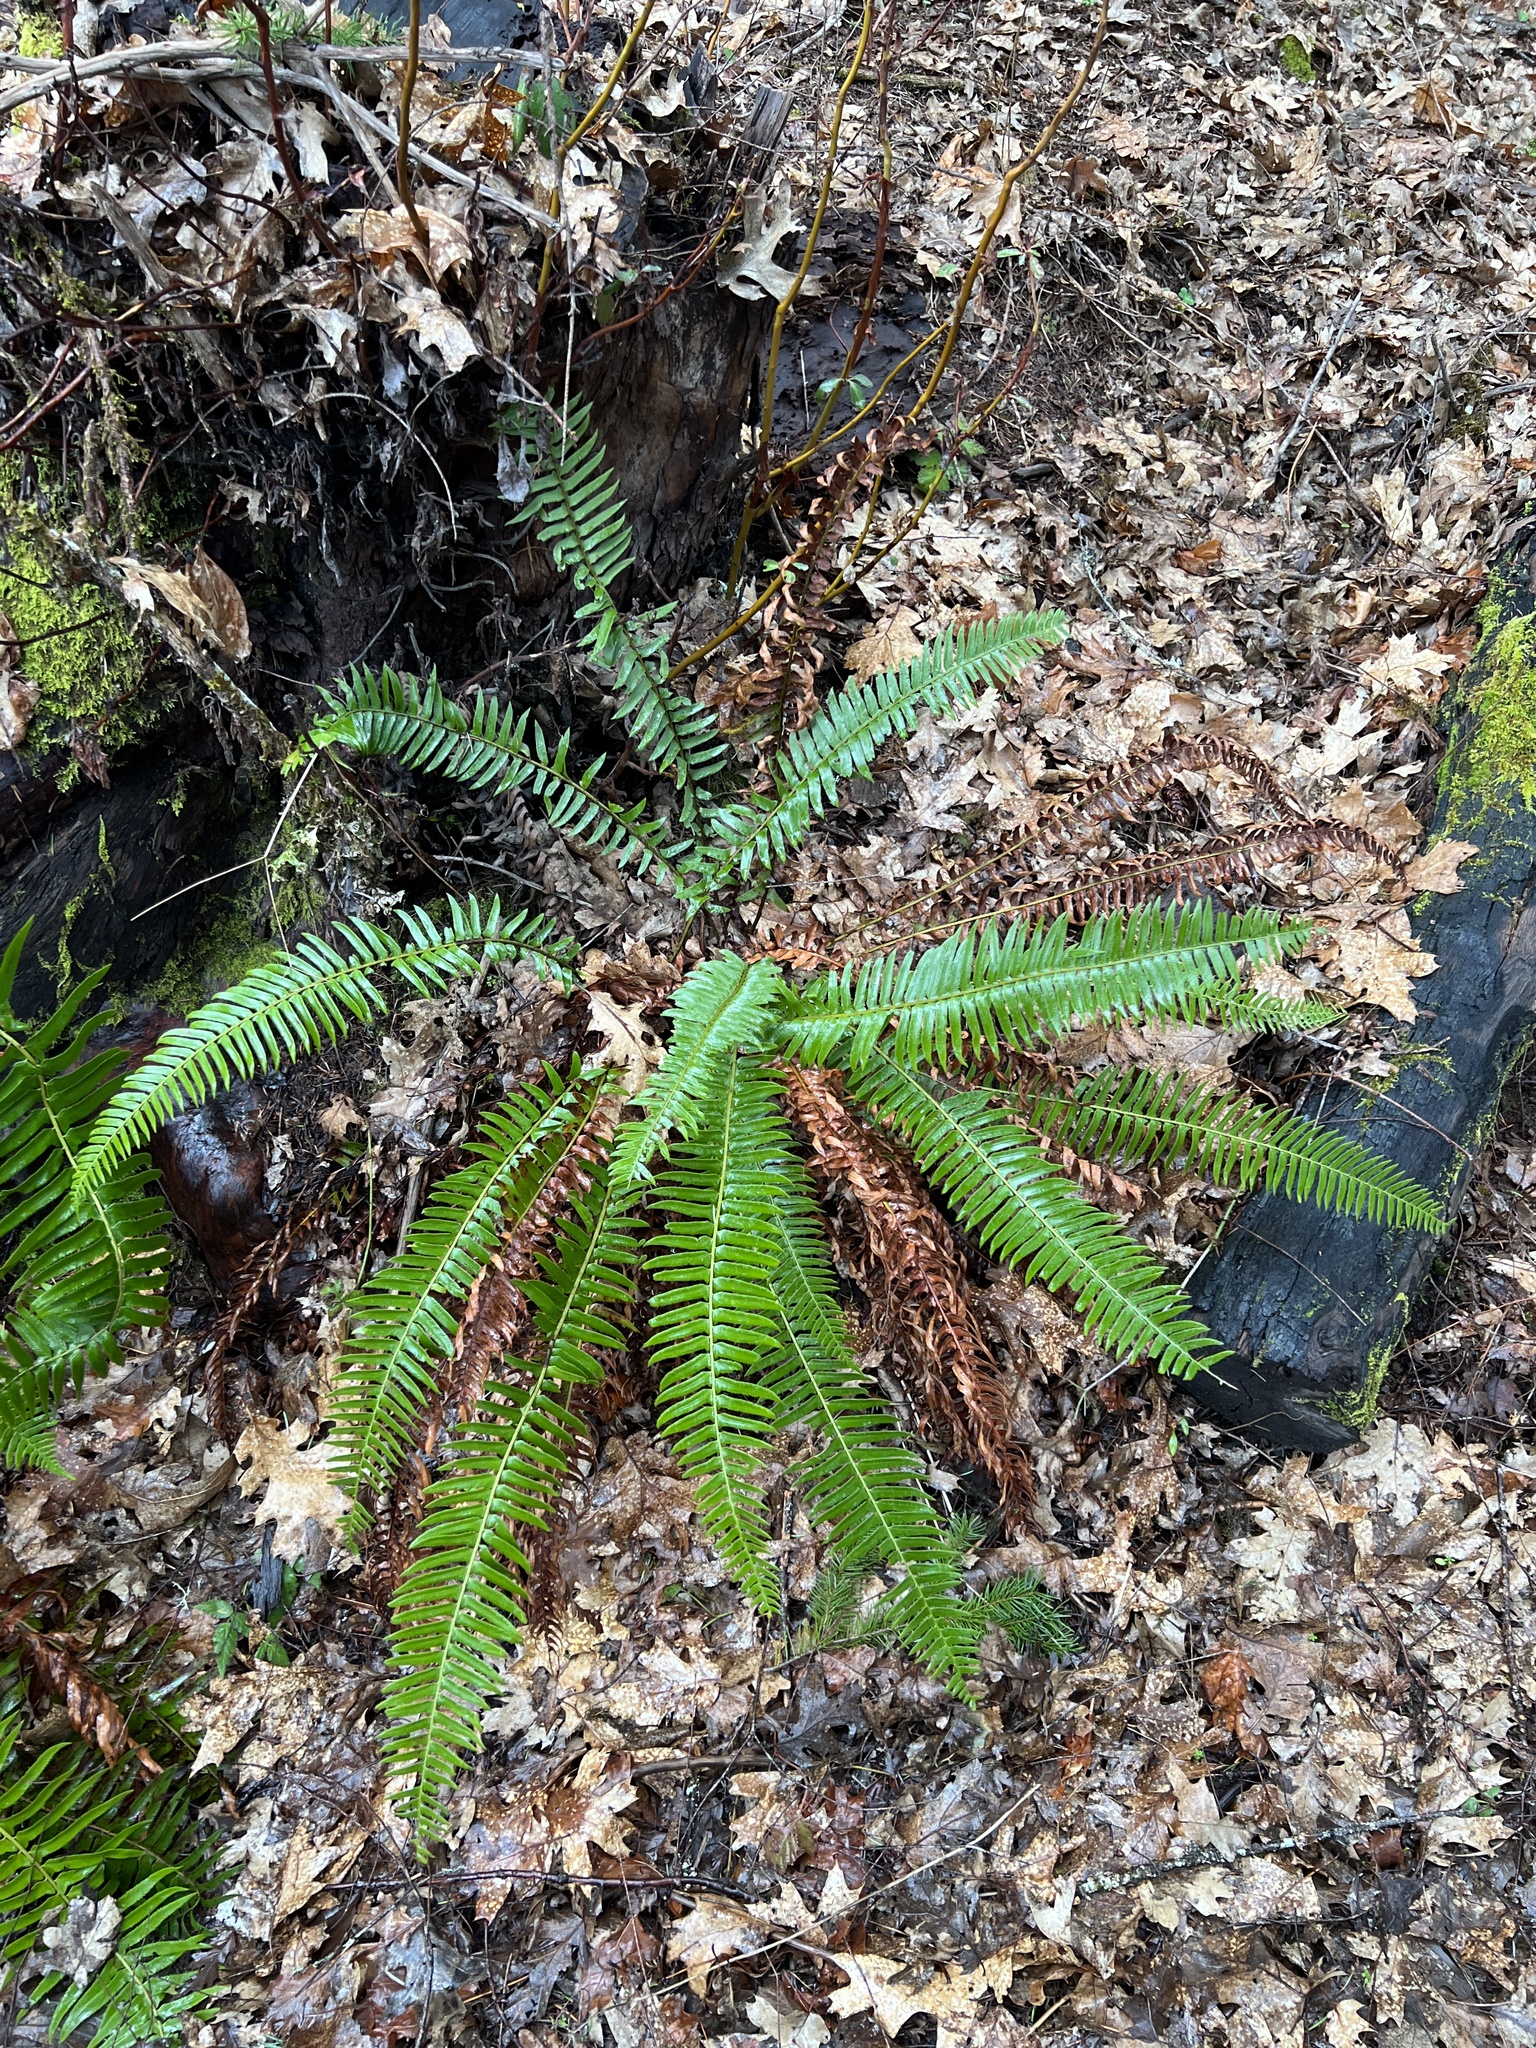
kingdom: Plantae
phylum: Tracheophyta
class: Polypodiopsida
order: Polypodiales
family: Dryopteridaceae
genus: Polystichum
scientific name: Polystichum munitum
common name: Western sword-fern
